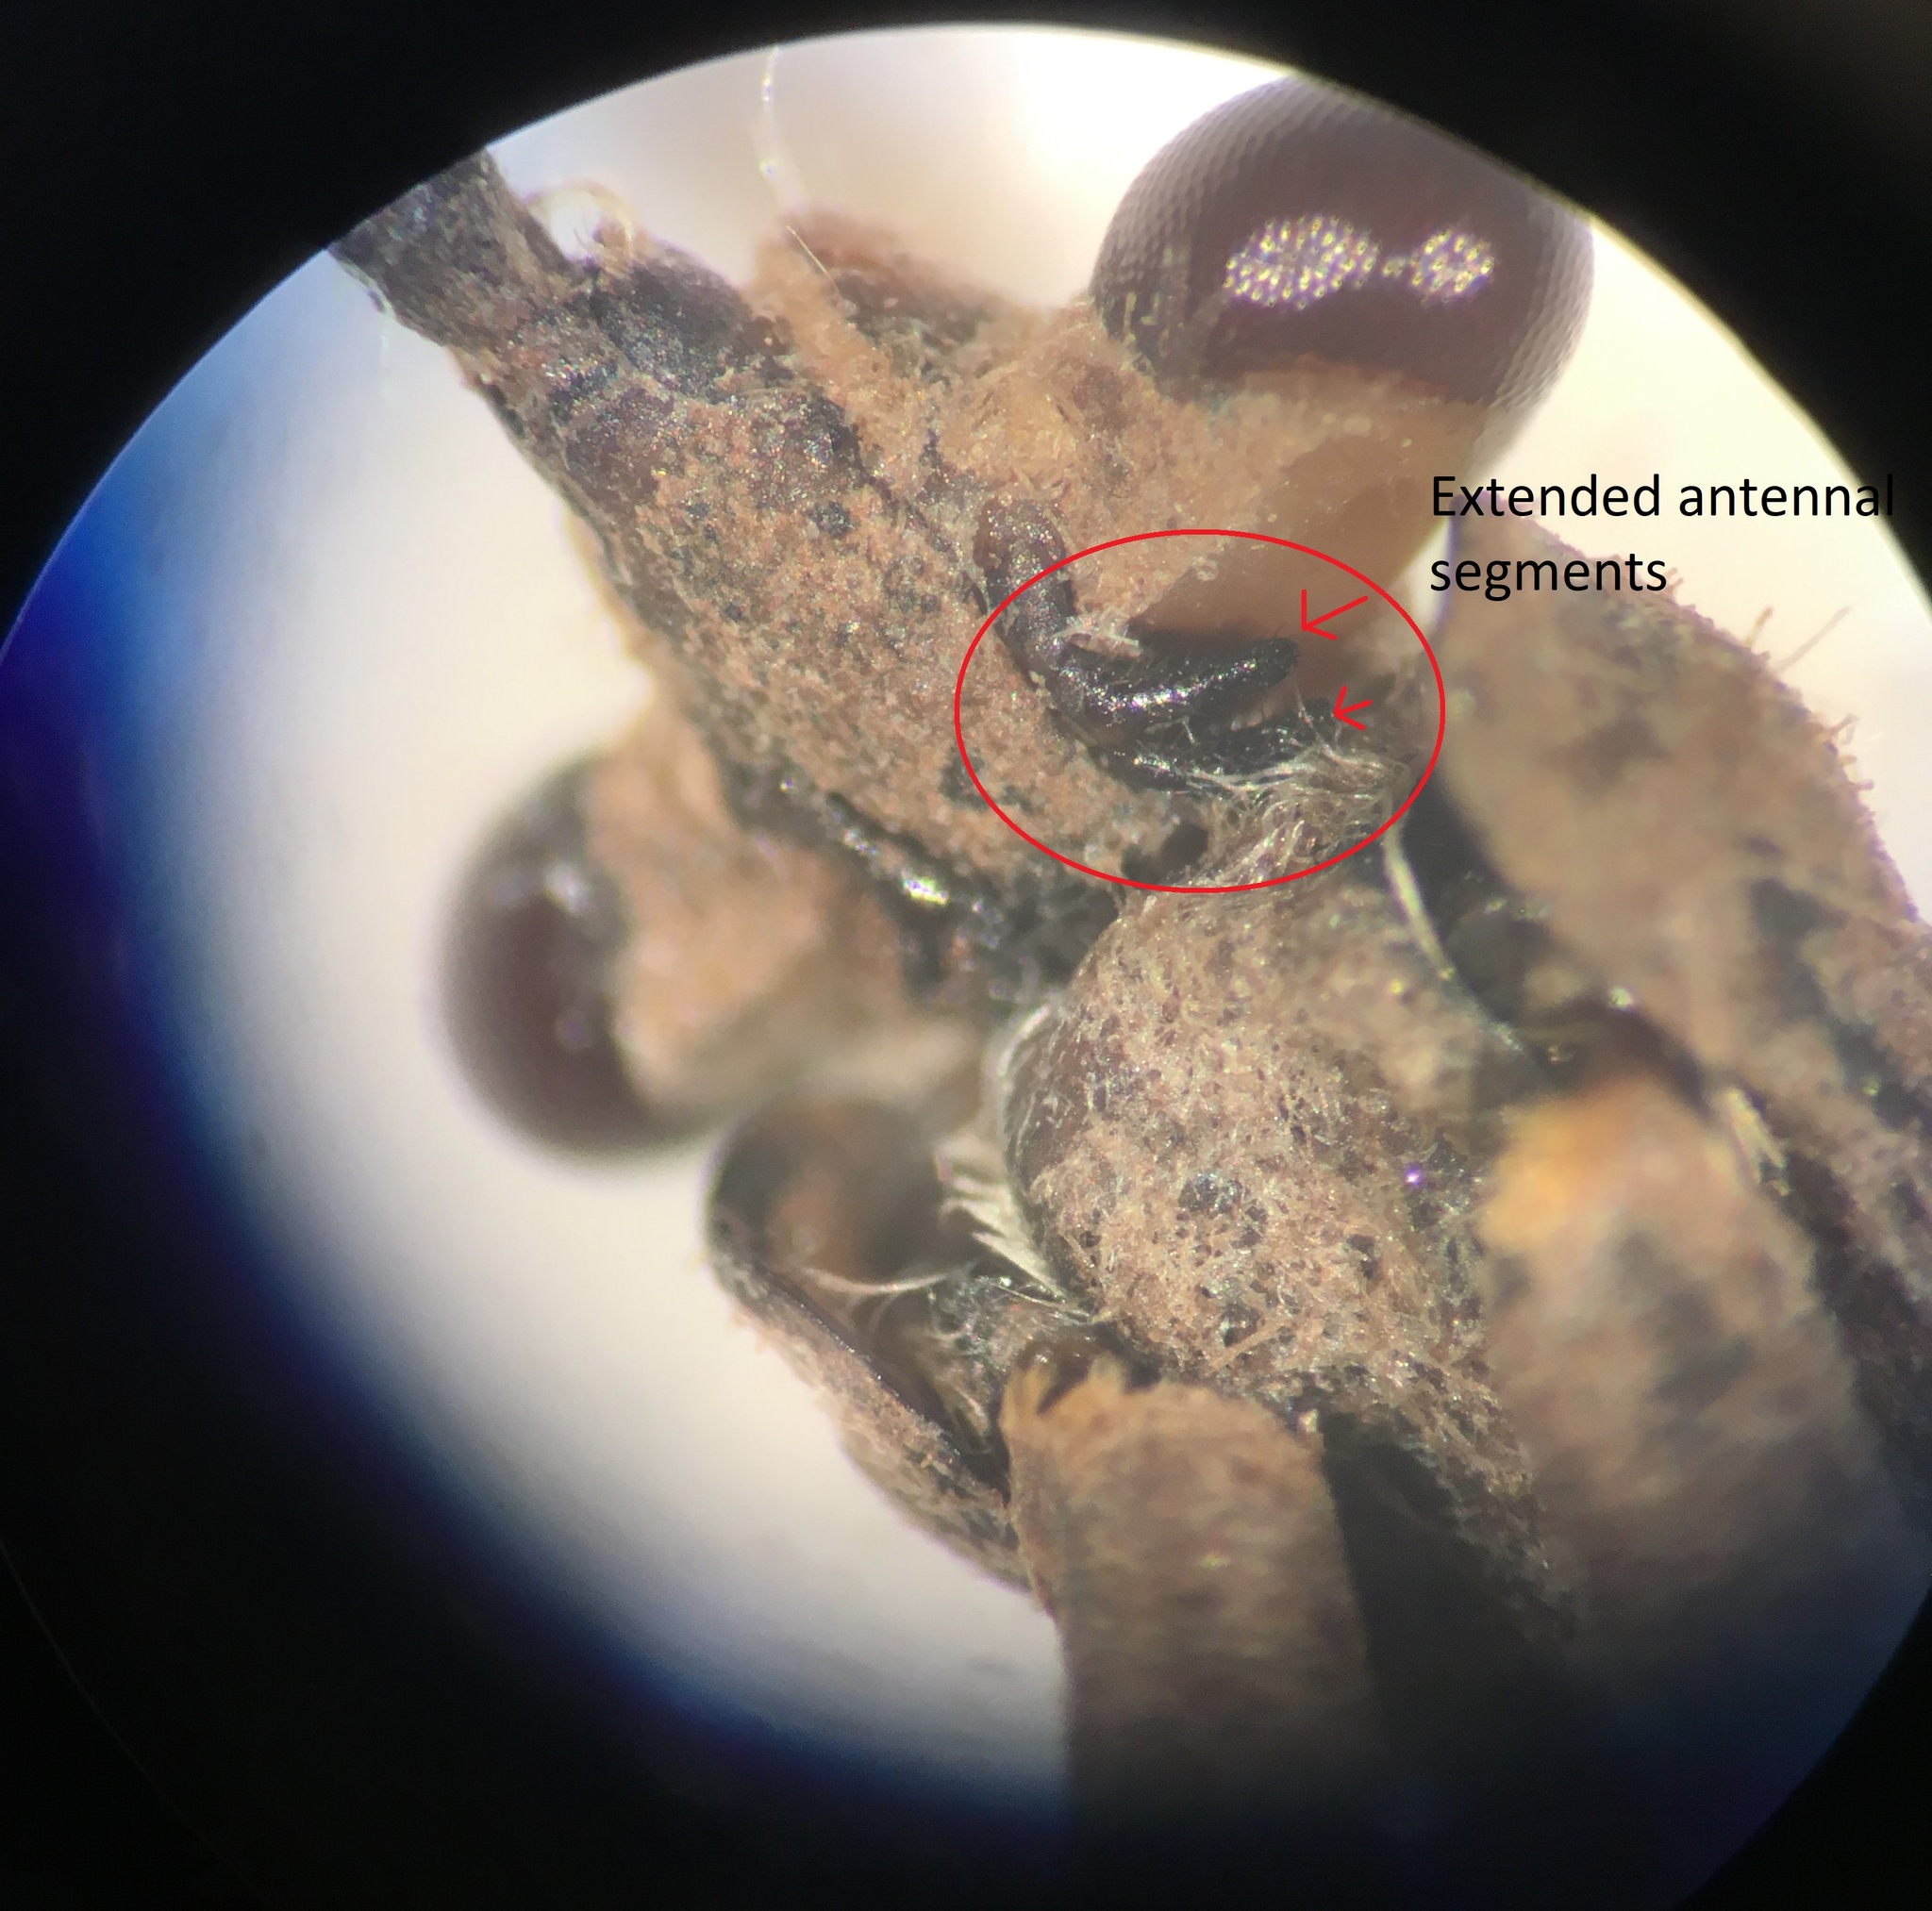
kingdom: Animalia
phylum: Arthropoda
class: Insecta
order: Hemiptera
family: Nepidae
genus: Ranatra
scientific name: Ranatra australis
